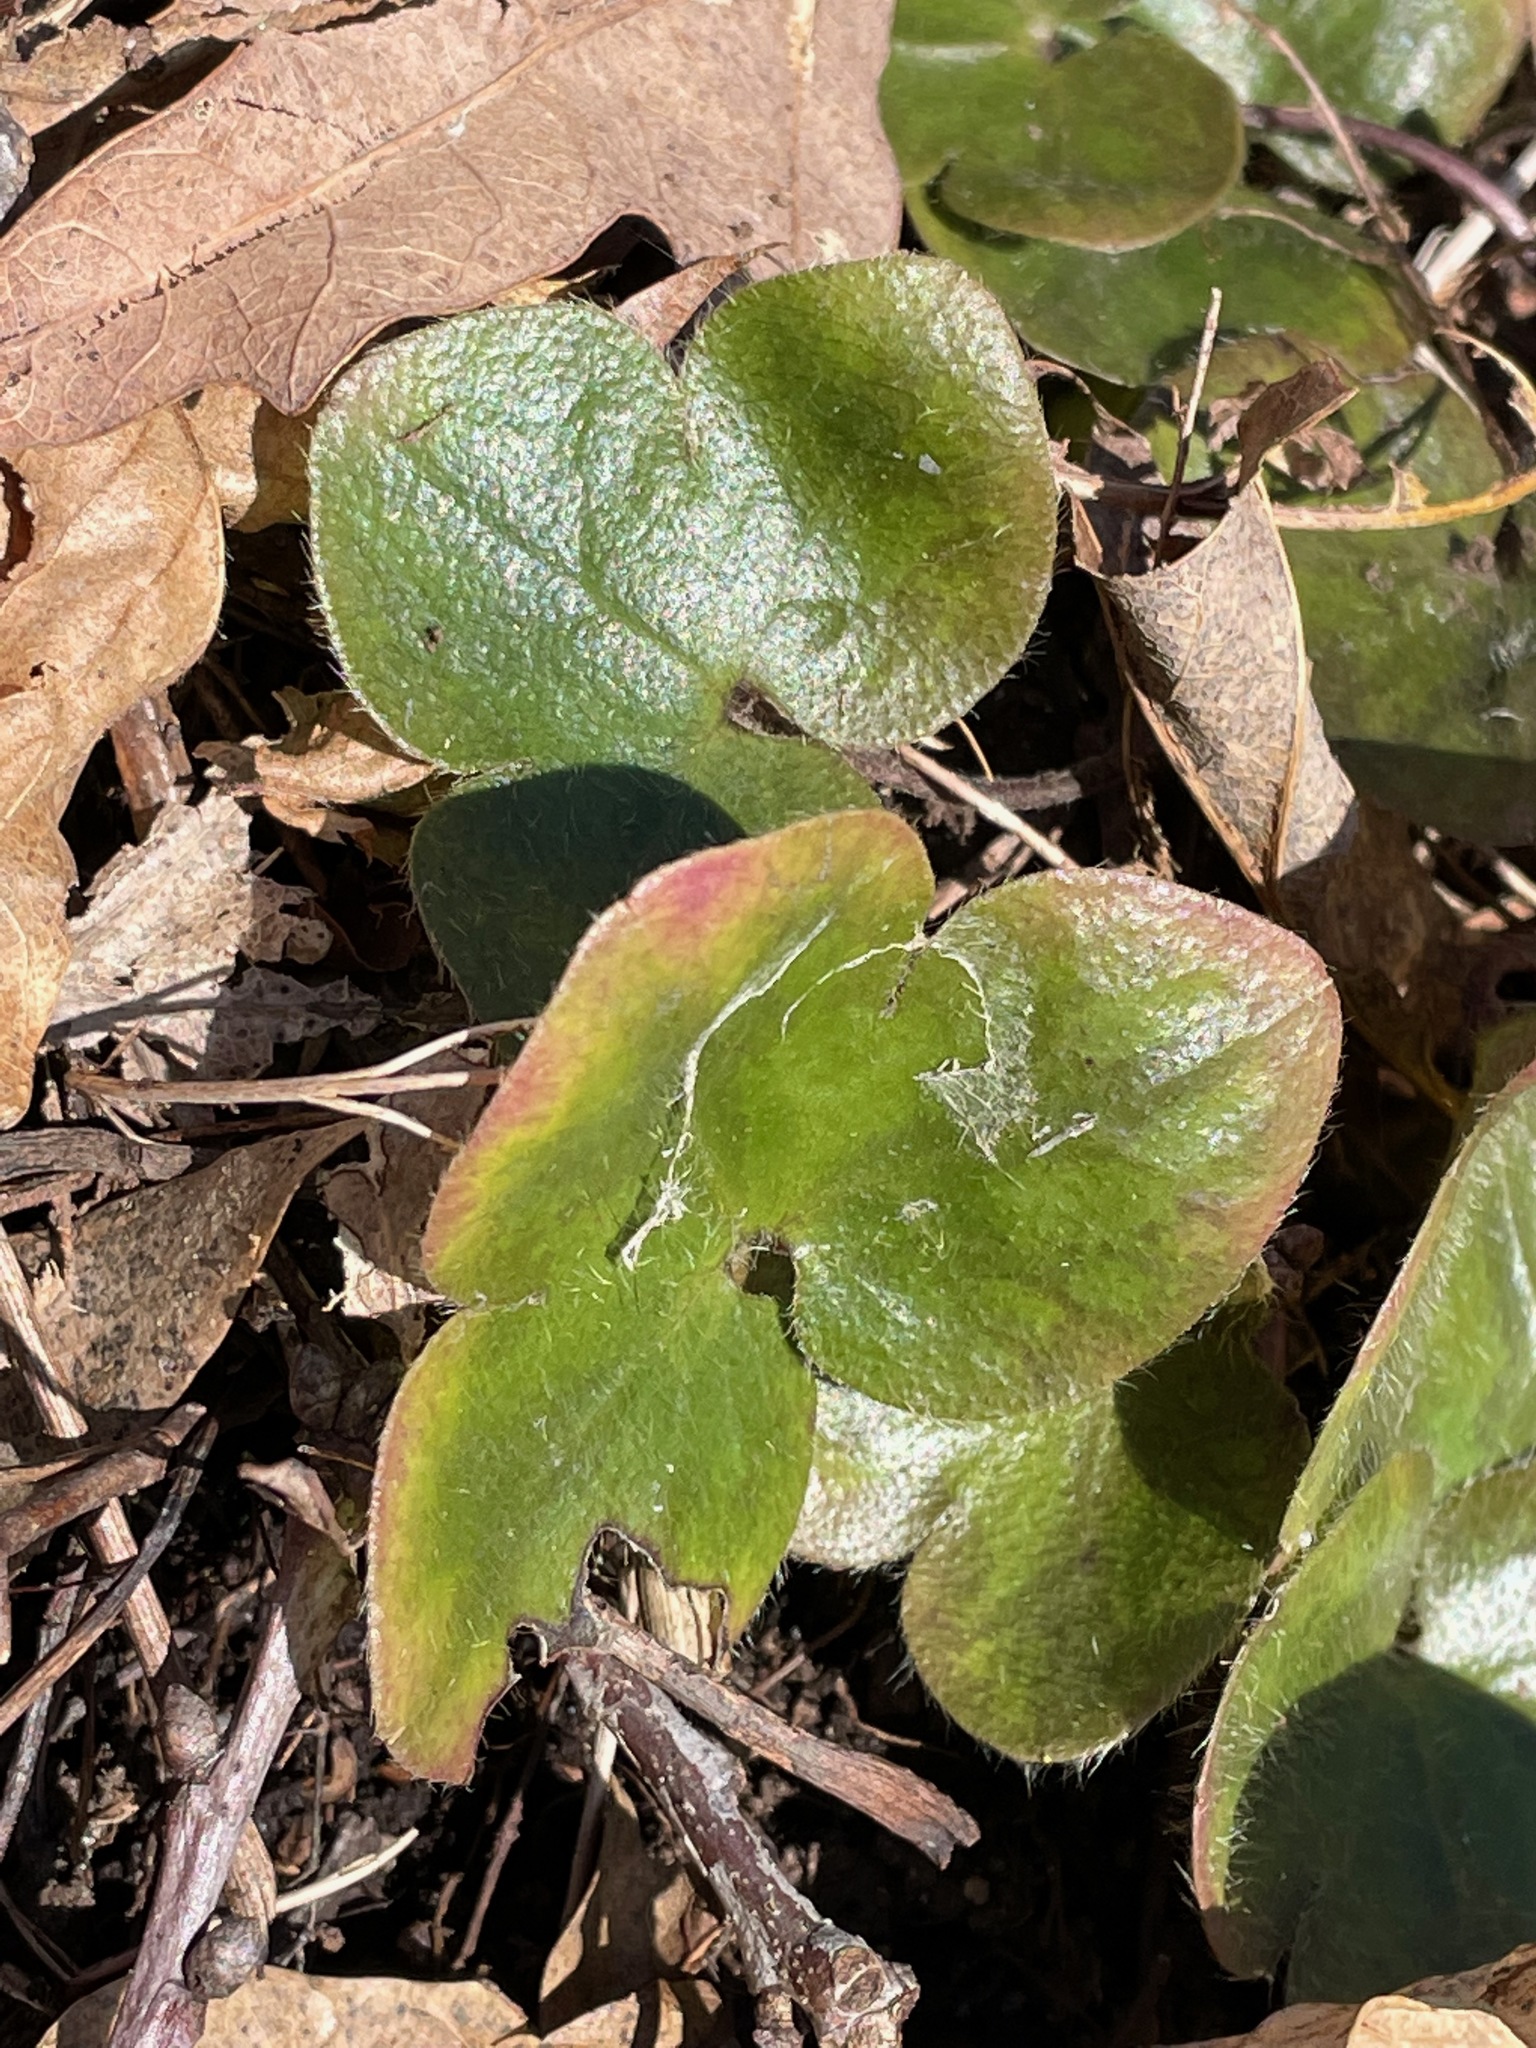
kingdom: Plantae
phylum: Tracheophyta
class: Magnoliopsida
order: Ranunculales
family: Ranunculaceae
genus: Hepatica
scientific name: Hepatica americana
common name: American hepatica
